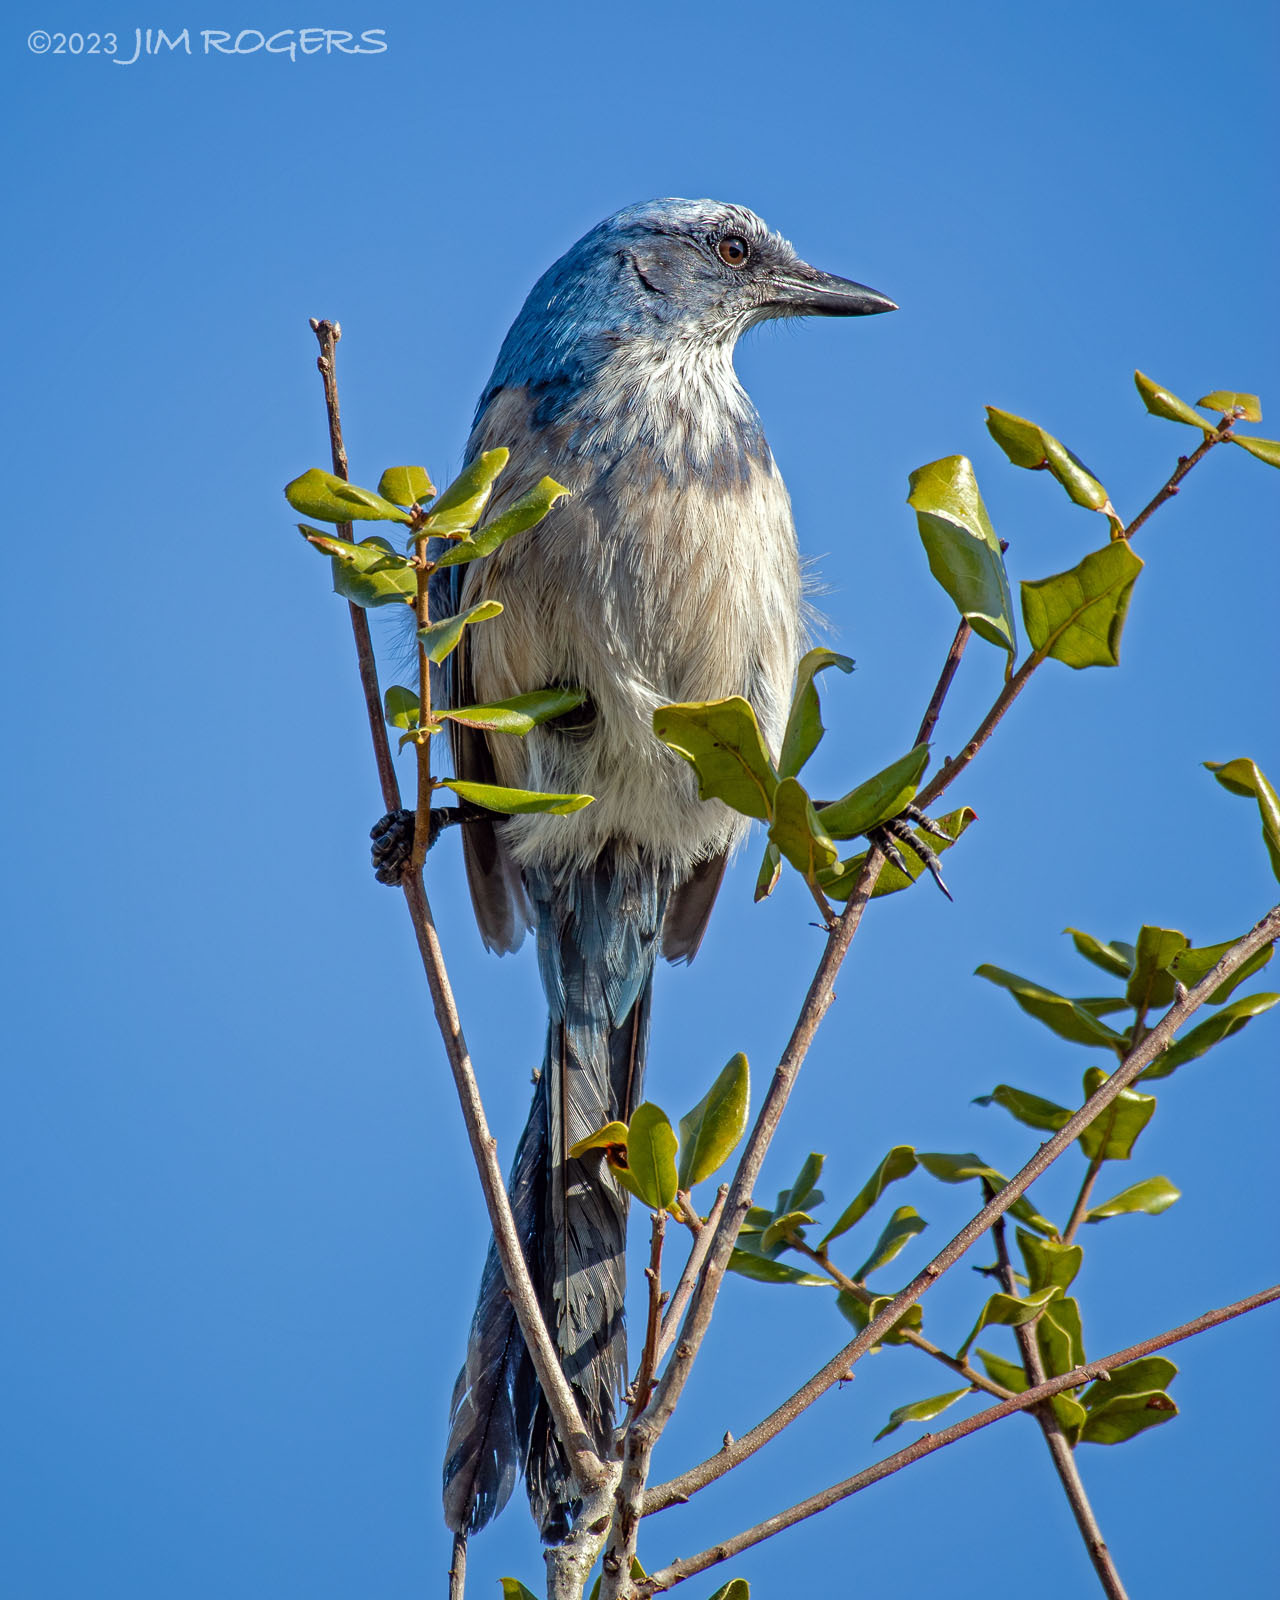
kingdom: Animalia
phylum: Chordata
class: Aves
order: Passeriformes
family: Corvidae
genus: Aphelocoma
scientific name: Aphelocoma coerulescens
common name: Florida scrub jay
